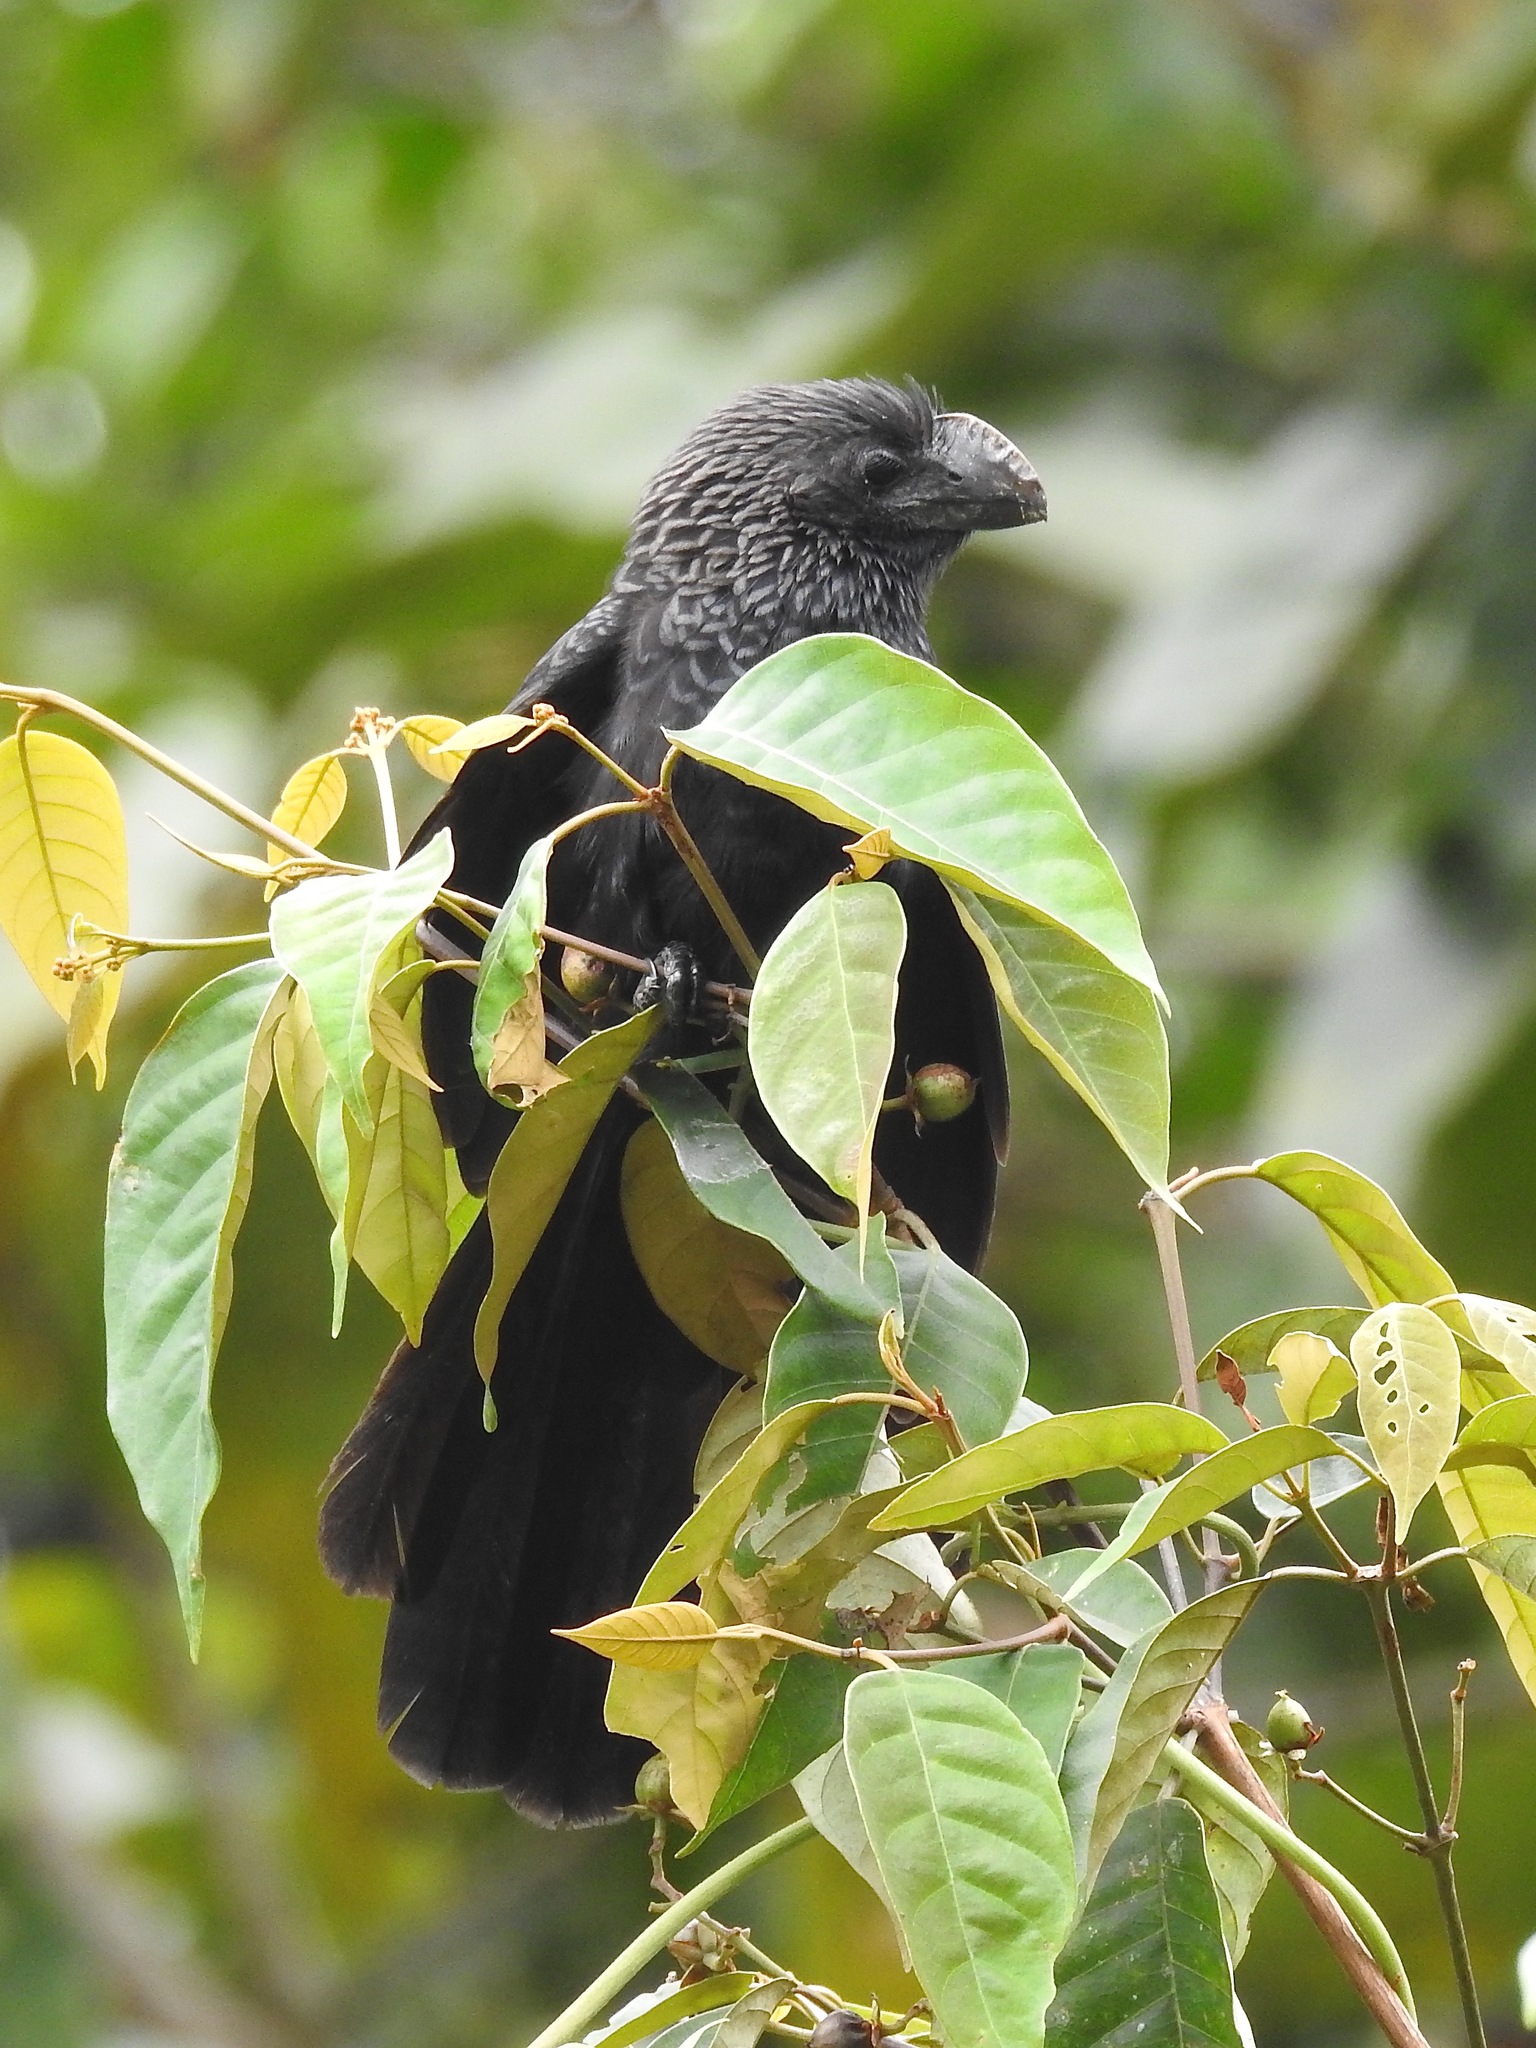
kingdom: Animalia
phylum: Chordata
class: Aves
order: Cuculiformes
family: Cuculidae
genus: Crotophaga
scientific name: Crotophaga ani
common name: Smooth-billed ani
